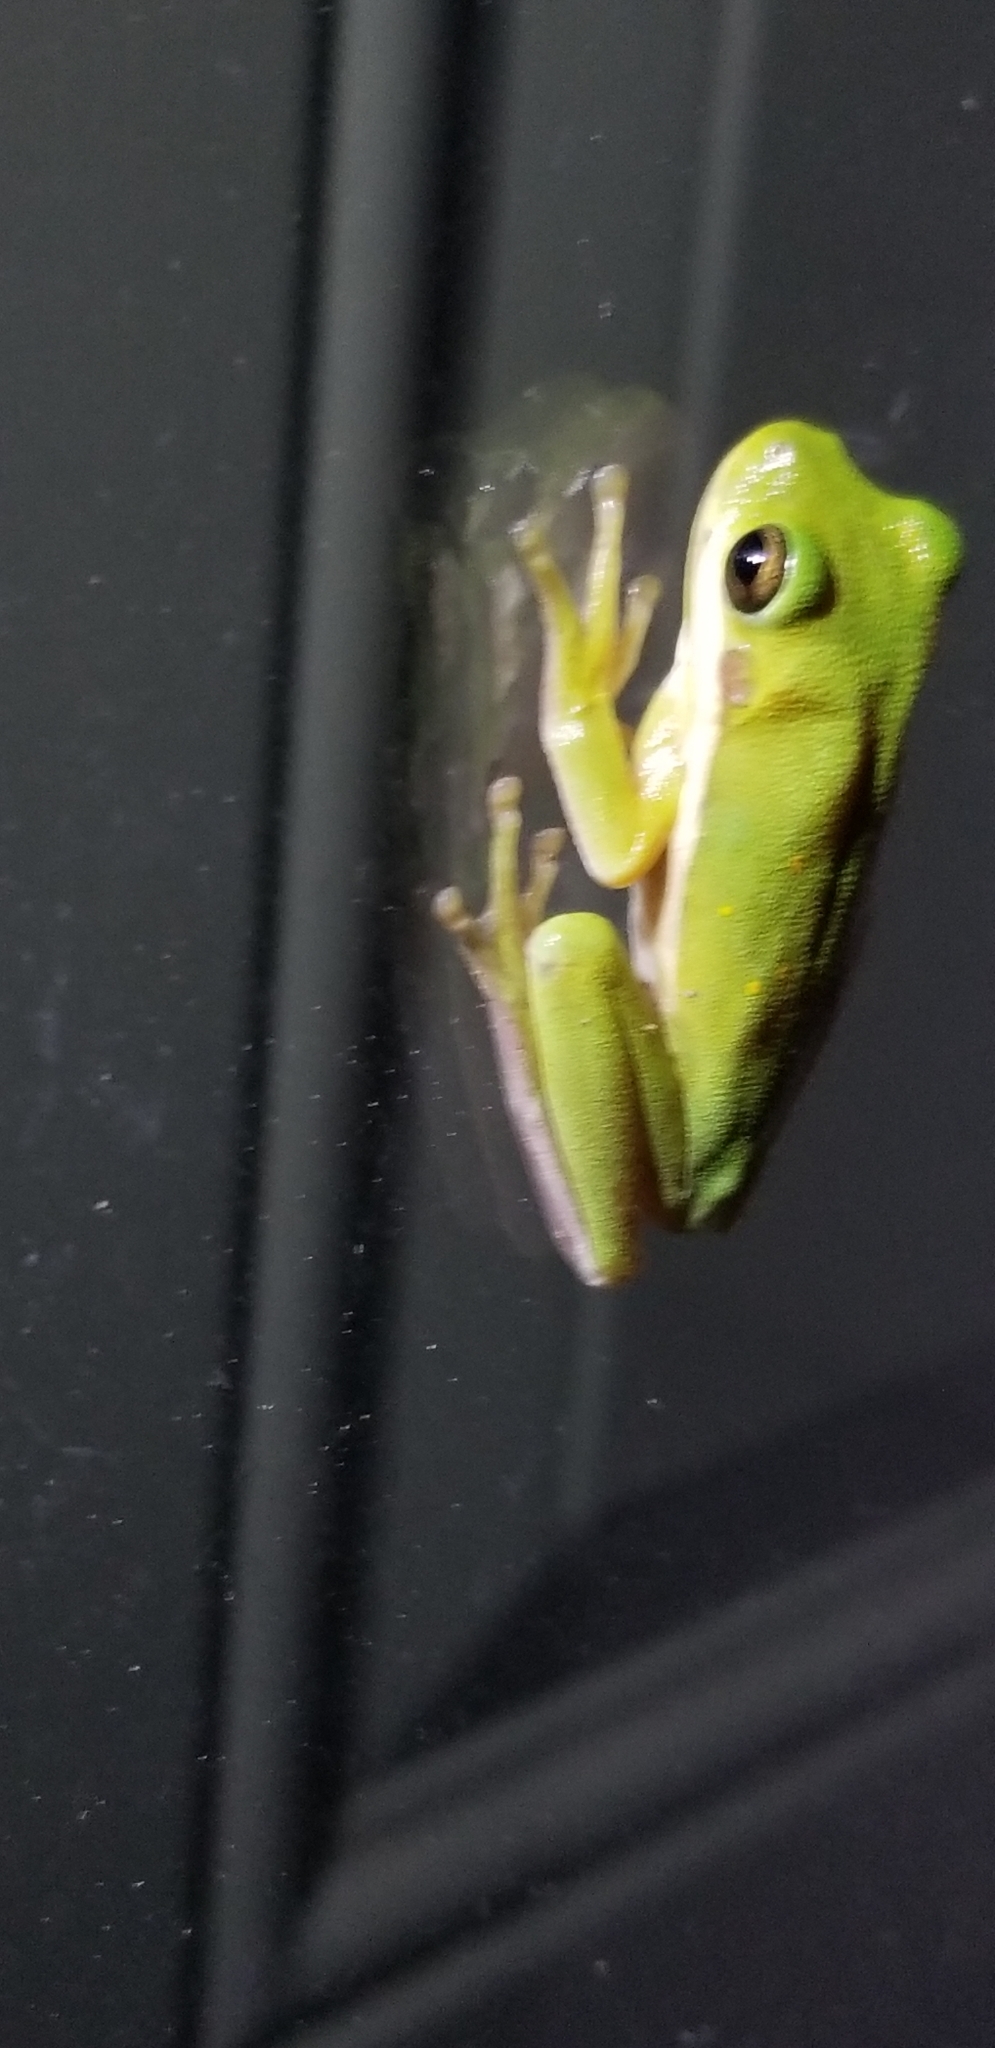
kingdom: Animalia
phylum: Chordata
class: Amphibia
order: Anura
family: Hylidae
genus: Dryophytes
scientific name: Dryophytes cinereus
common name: Green treefrog
